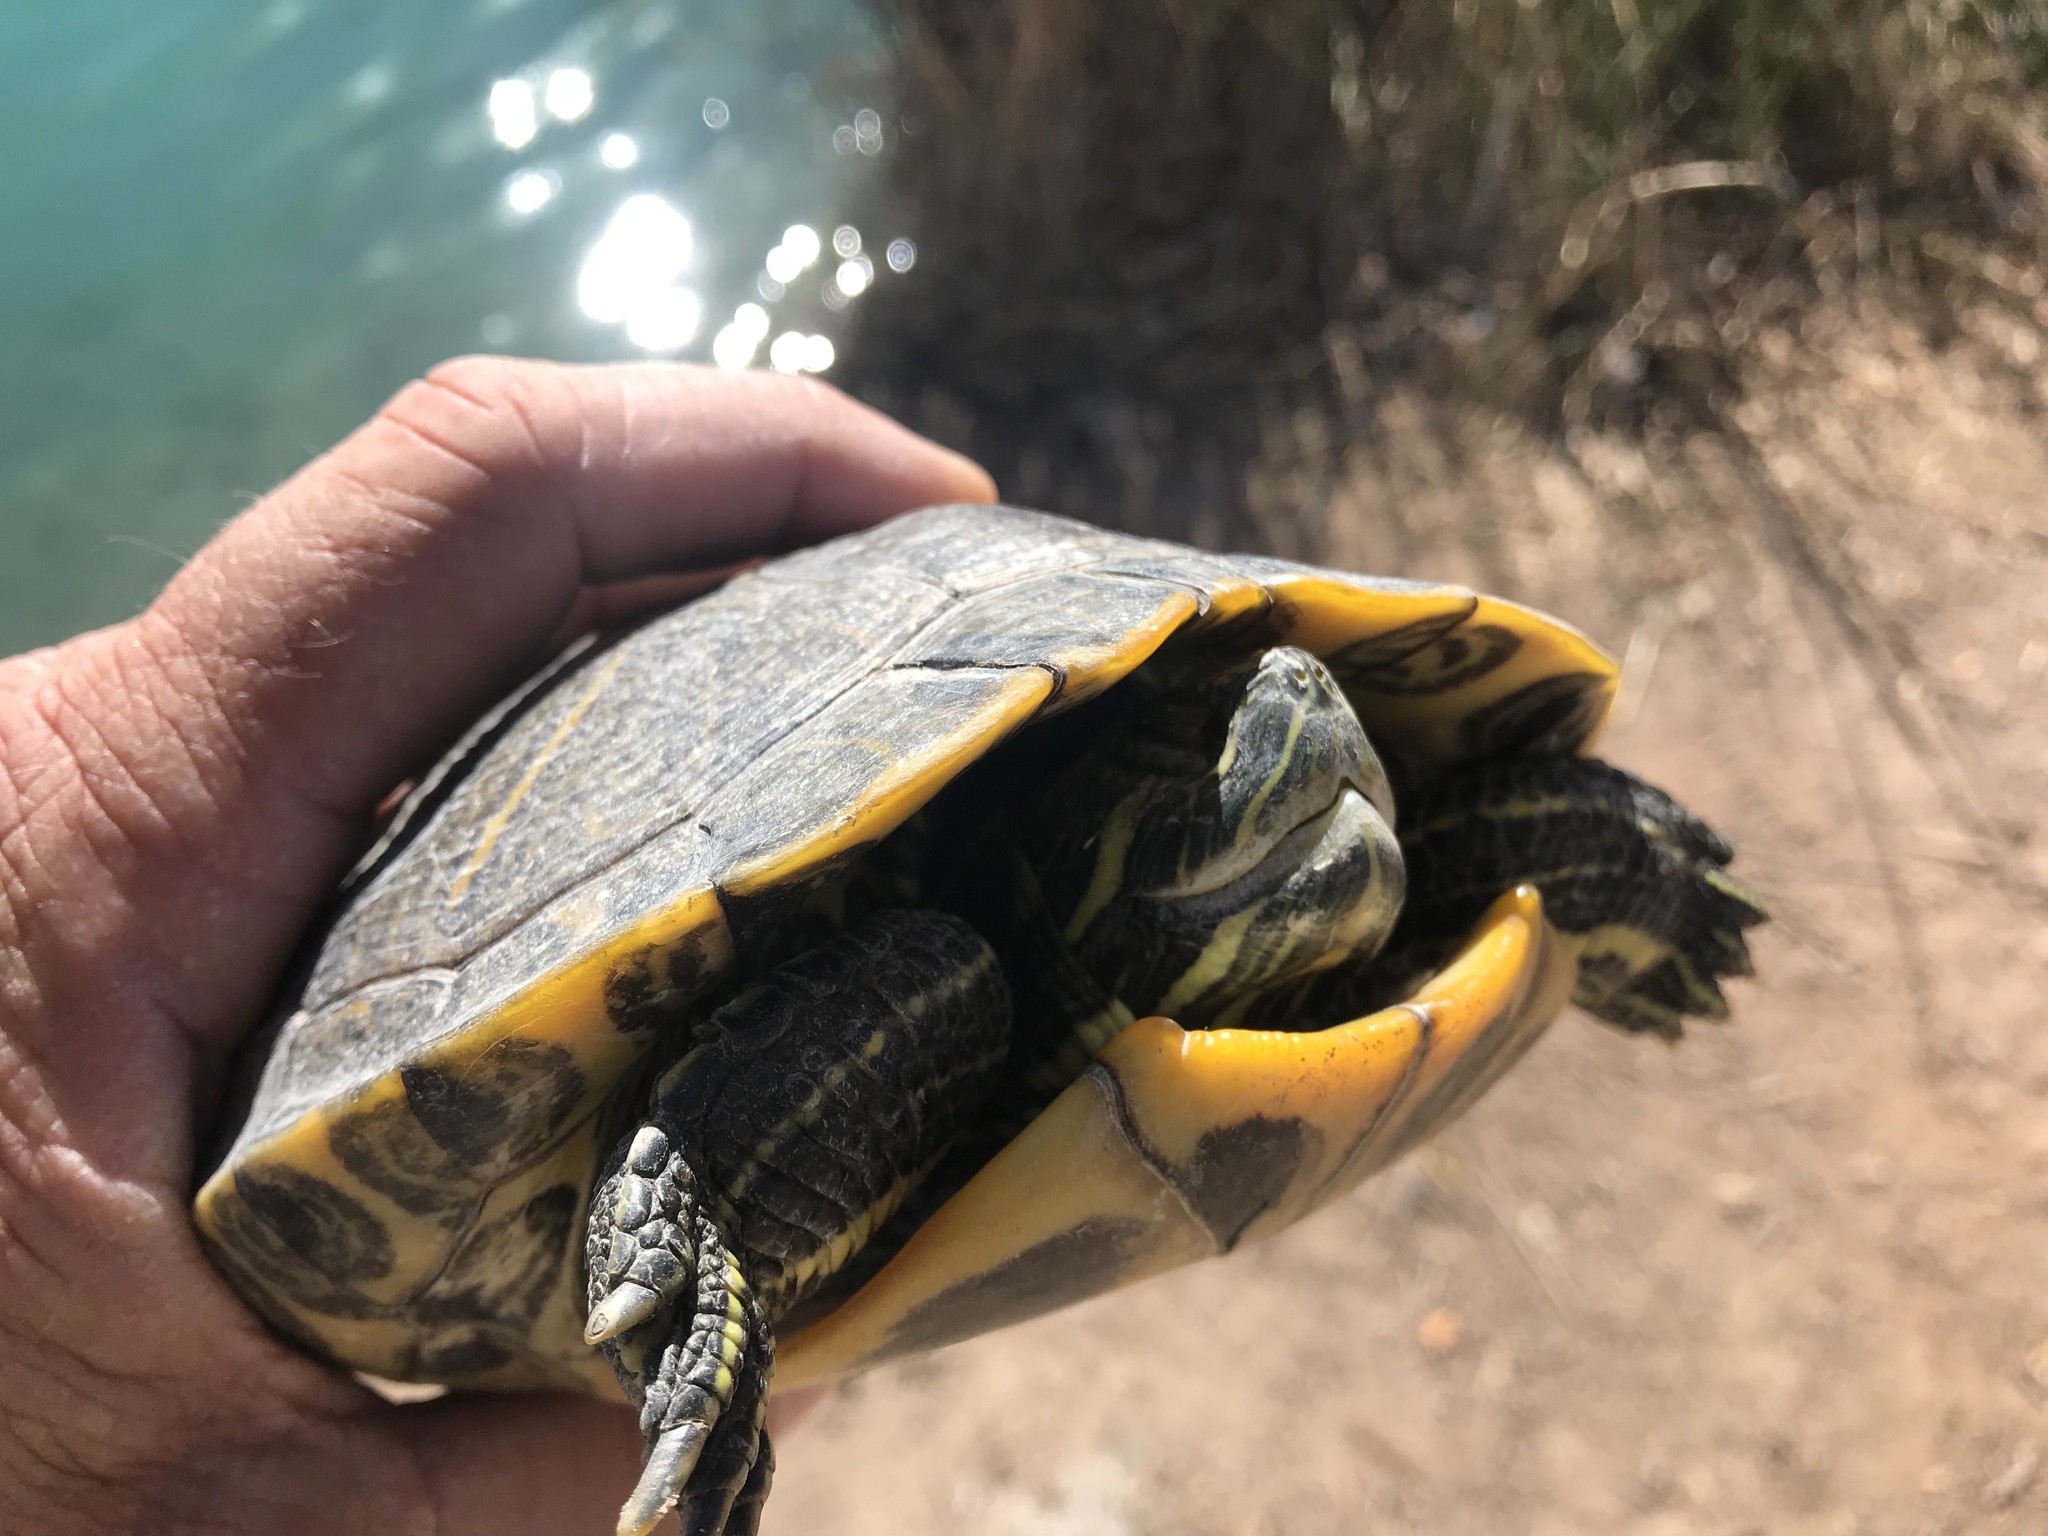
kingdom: Animalia
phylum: Chordata
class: Testudines
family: Emydidae
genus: Trachemys
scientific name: Trachemys scripta
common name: Slider
